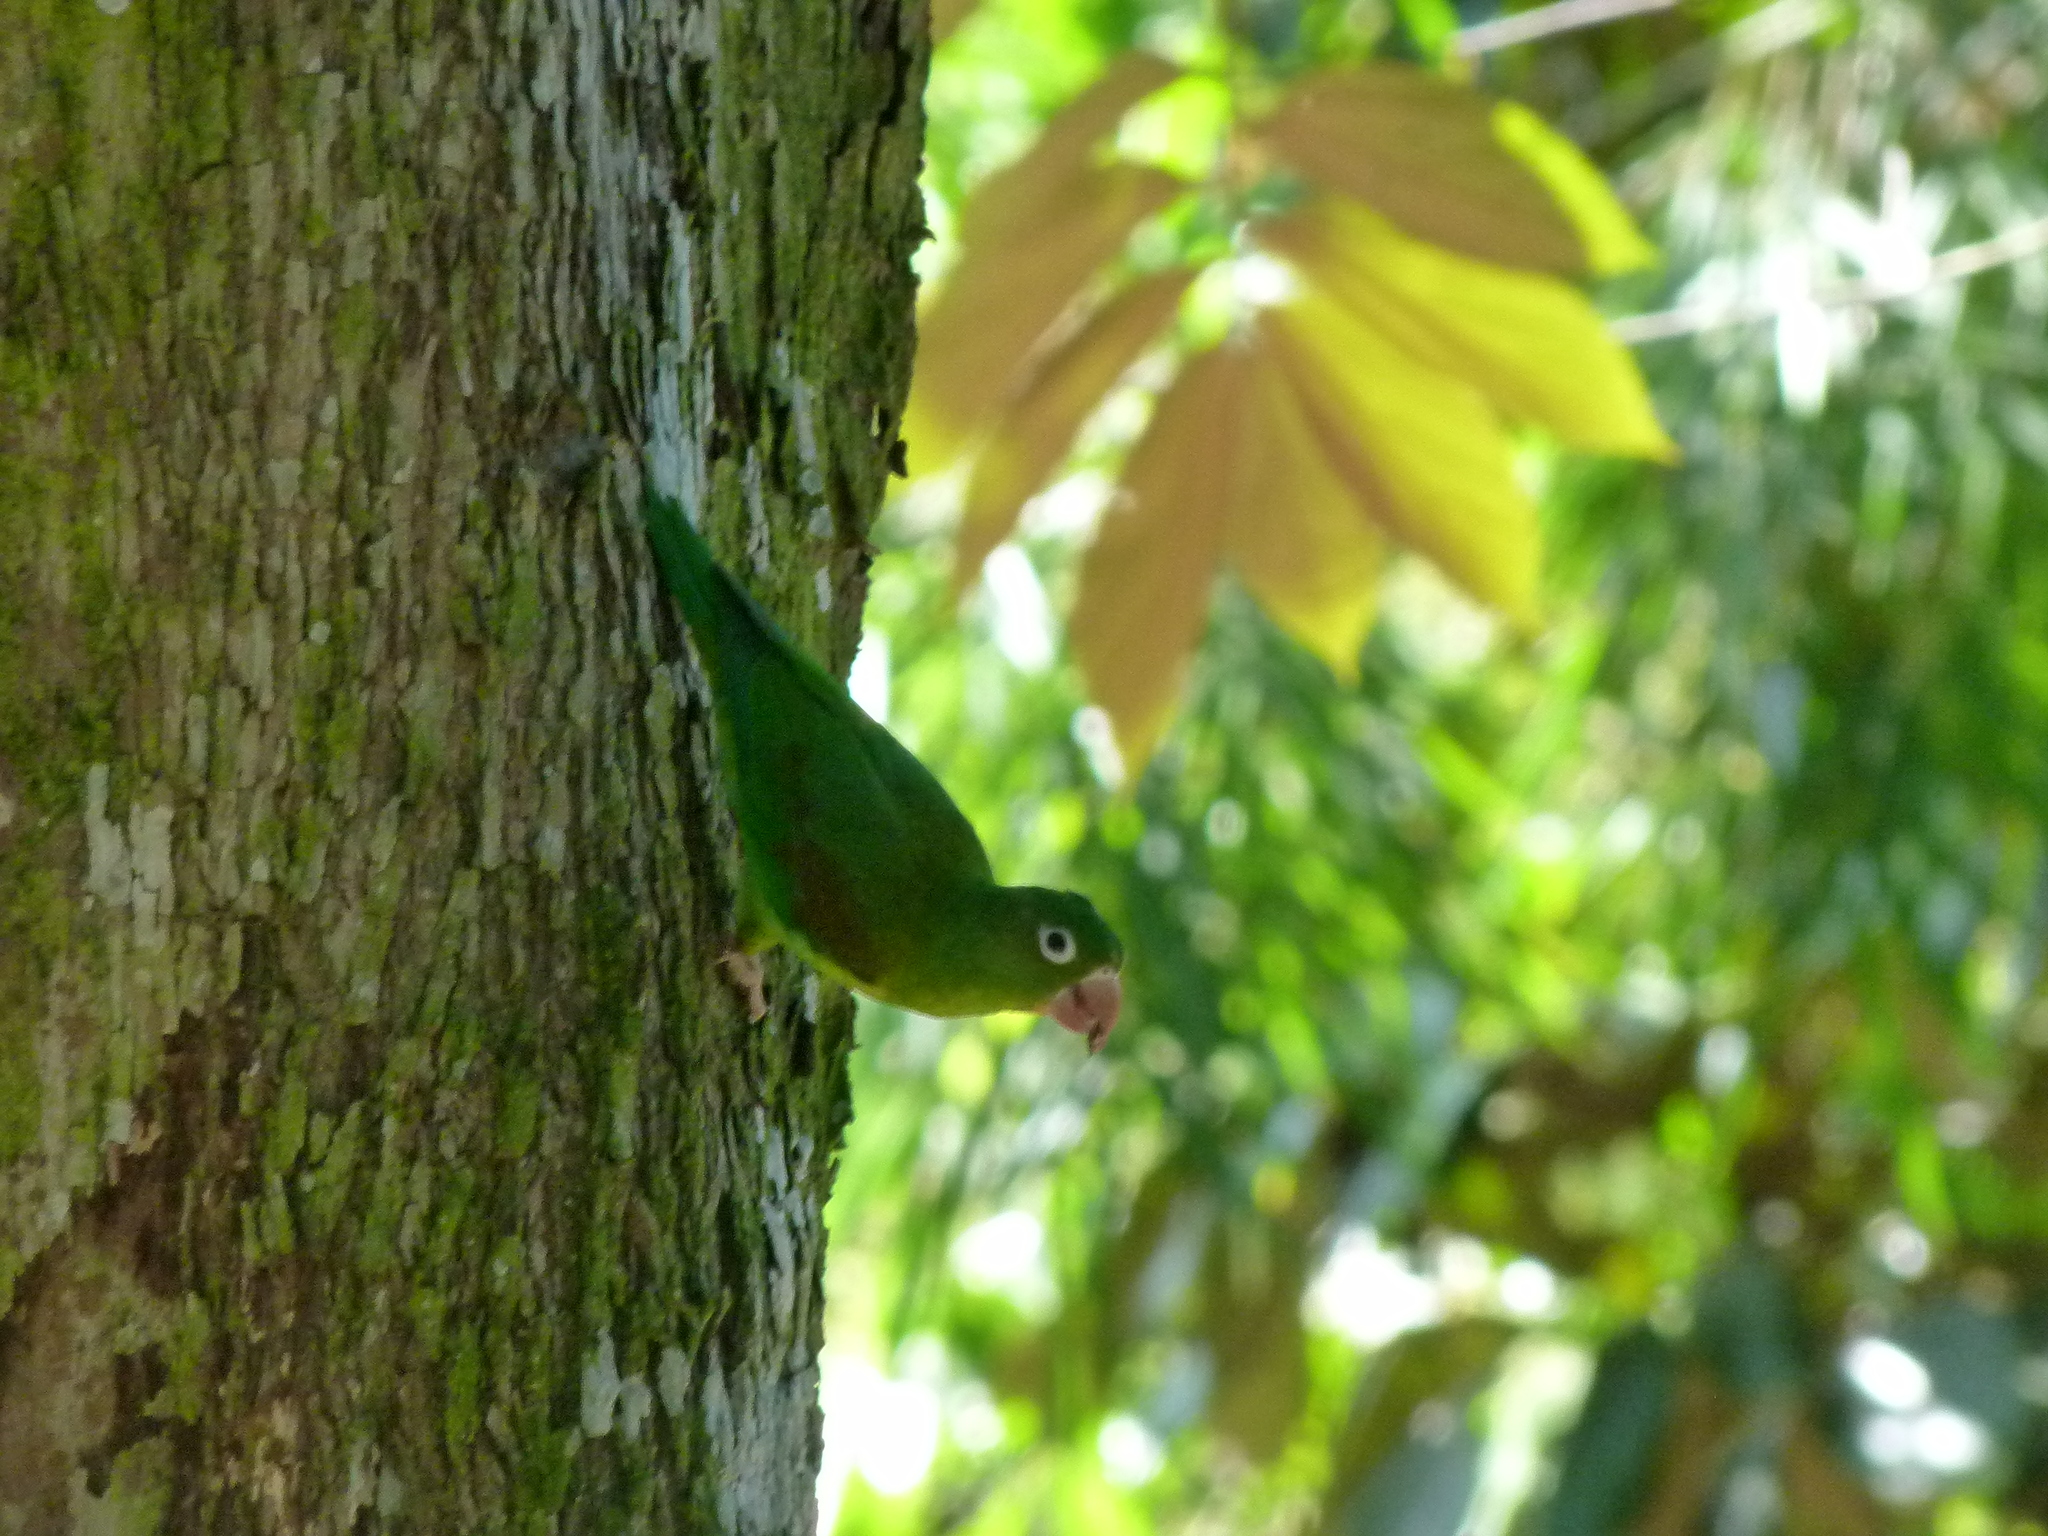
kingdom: Animalia
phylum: Chordata
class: Aves
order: Psittaciformes
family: Psittacidae
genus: Brotogeris
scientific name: Brotogeris jugularis
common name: Orange-chinned parakeet
